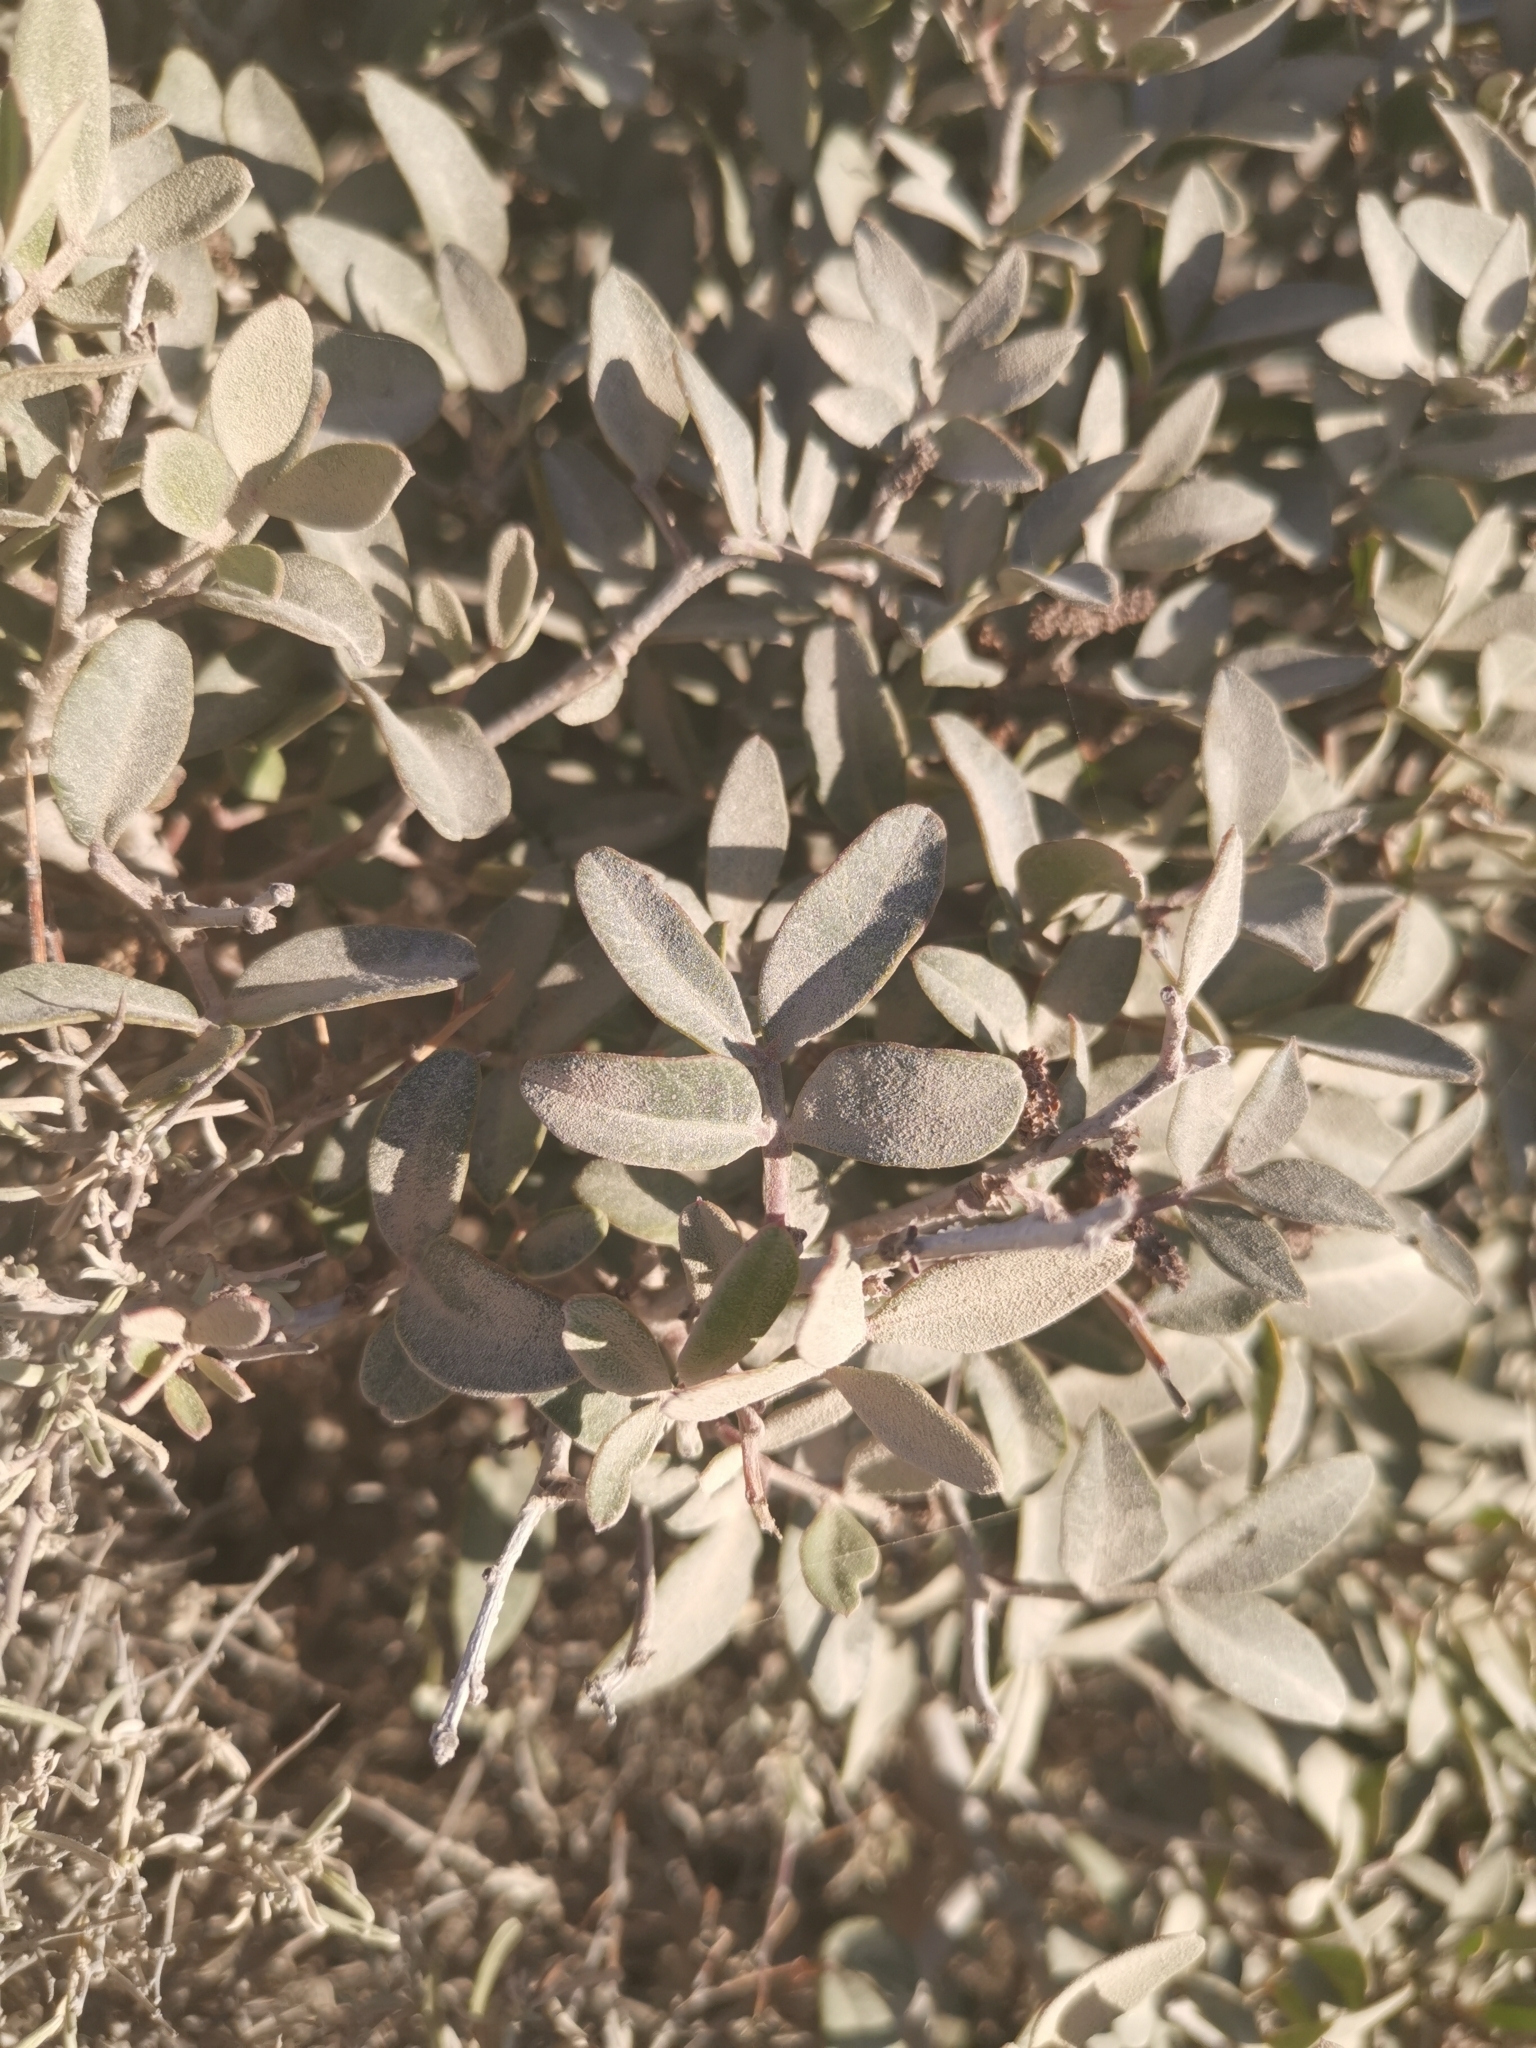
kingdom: Plantae
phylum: Tracheophyta
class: Magnoliopsida
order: Sapindales
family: Anacardiaceae
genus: Pistacia
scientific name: Pistacia lentiscus
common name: Lentisk
